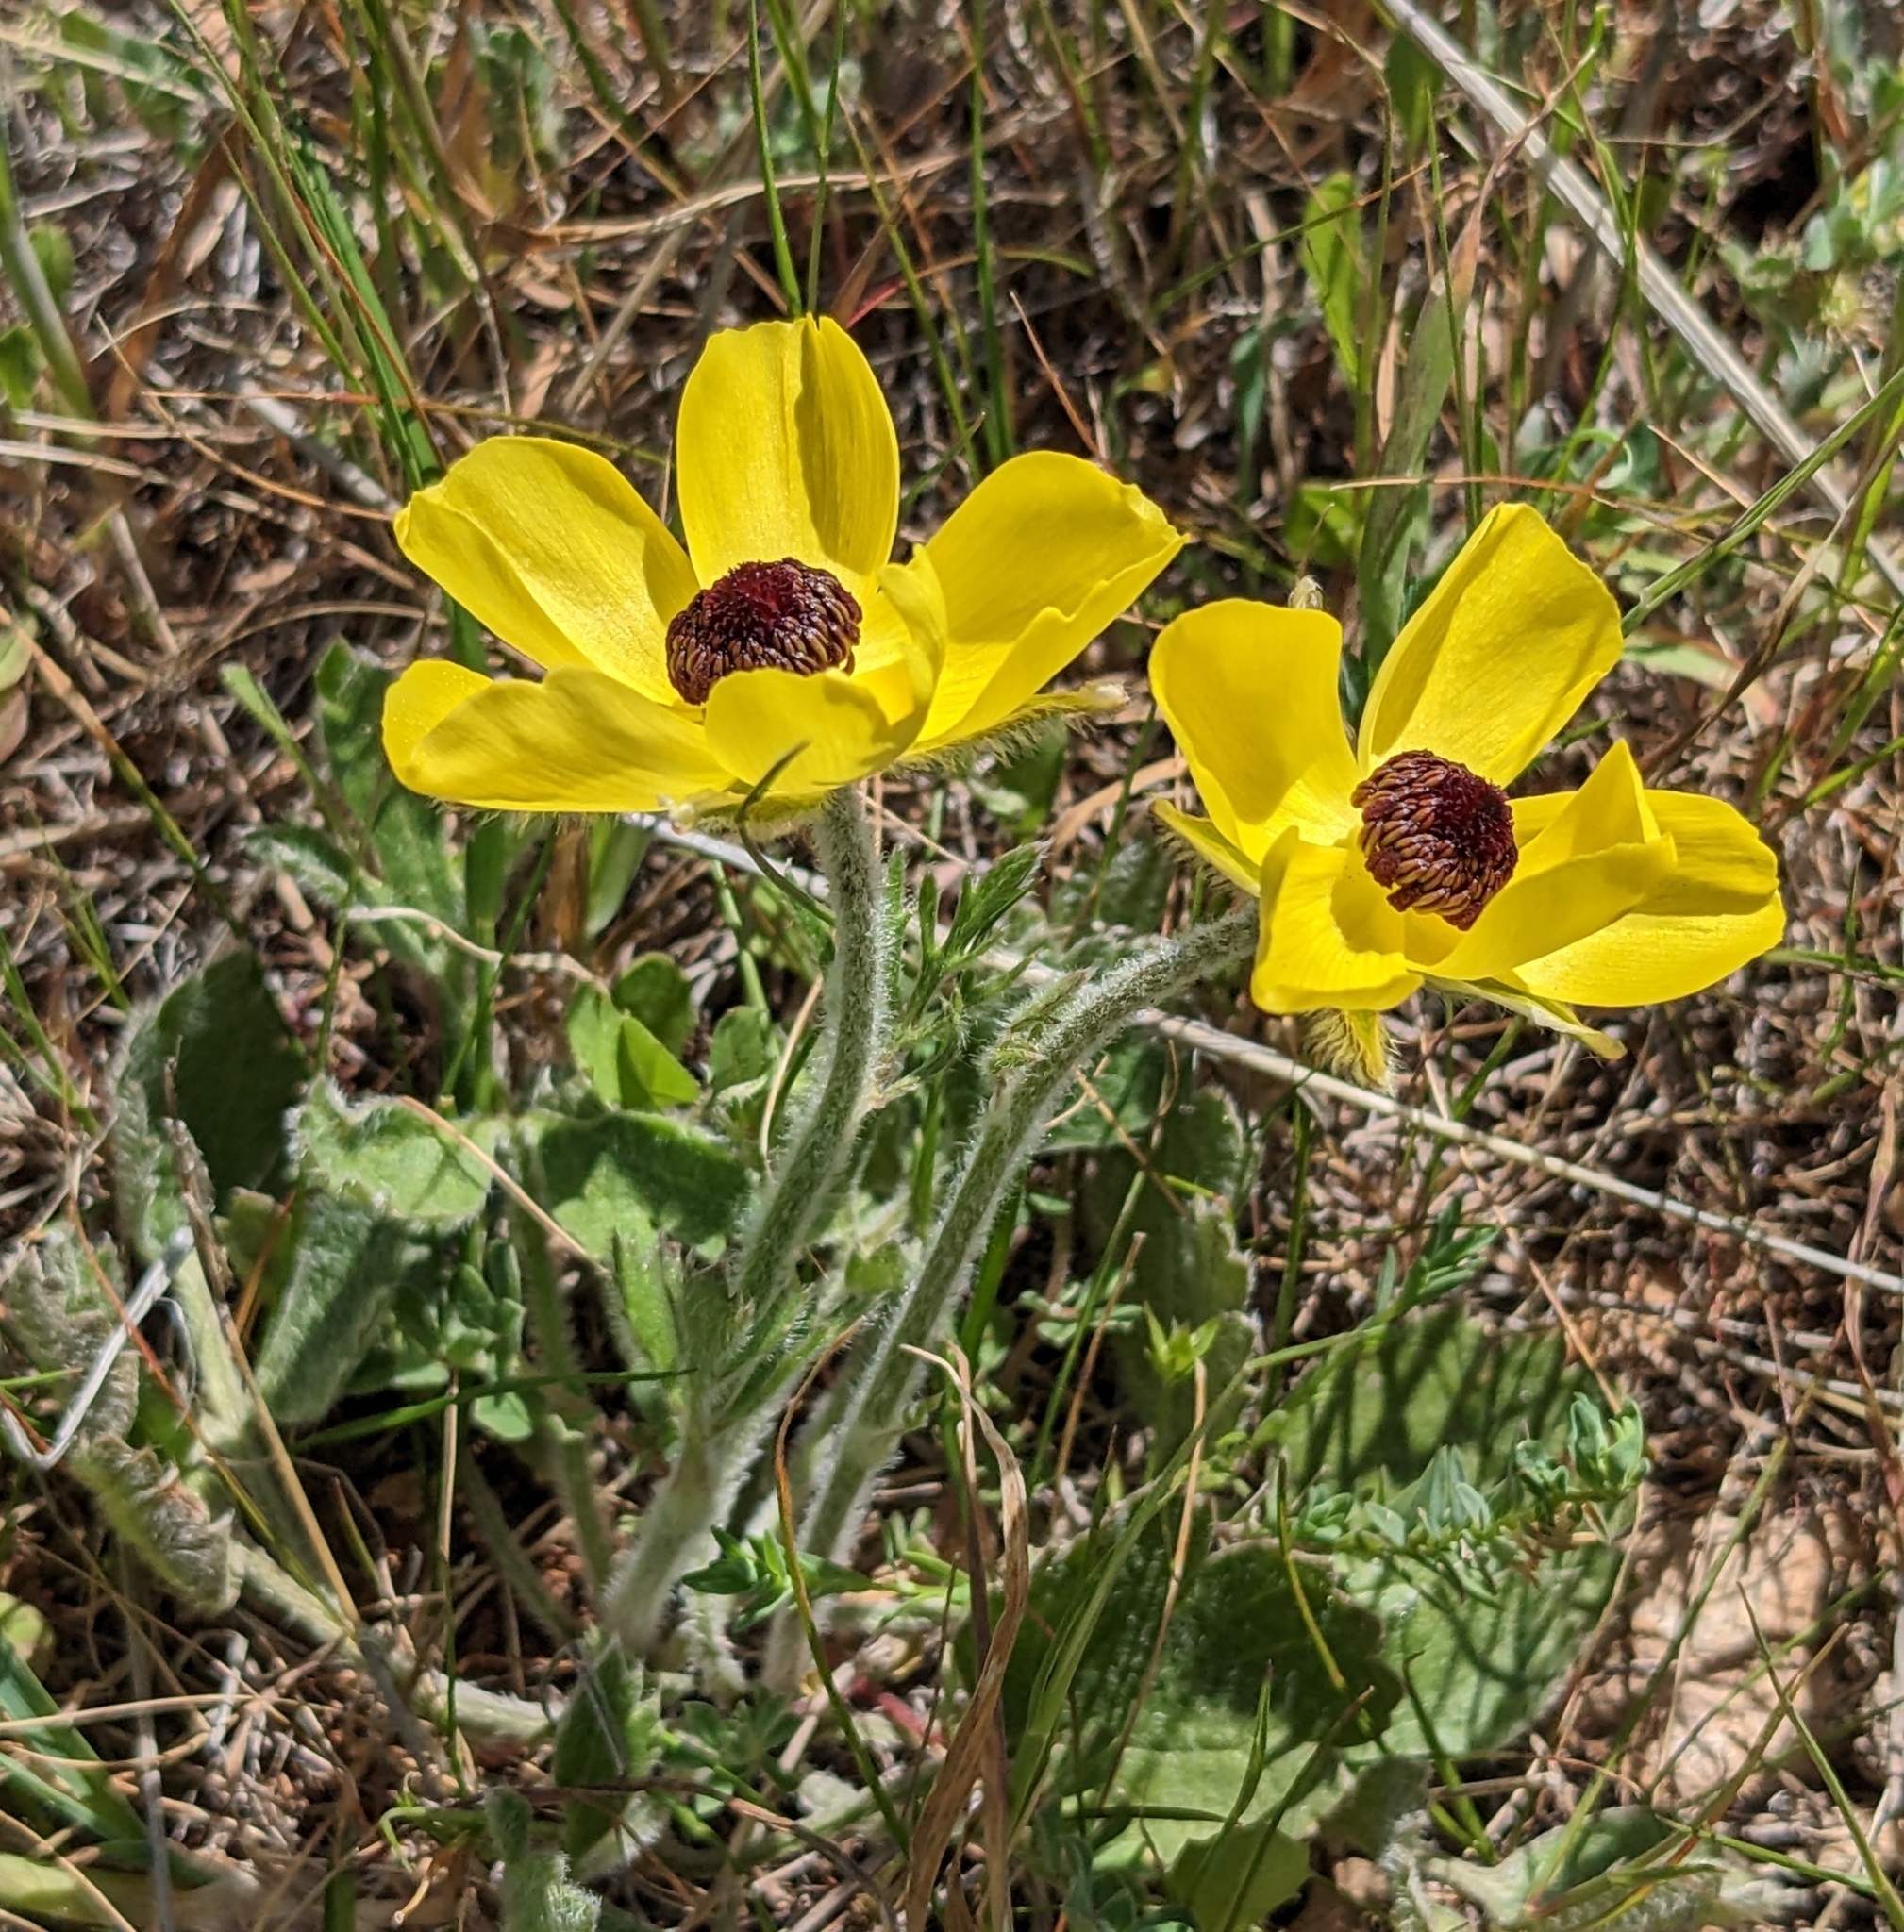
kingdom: Plantae
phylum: Tracheophyta
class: Magnoliopsida
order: Ranunculales
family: Ranunculaceae
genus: Ranunculus
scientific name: Ranunculus asiaticus
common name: Persian buttercup
